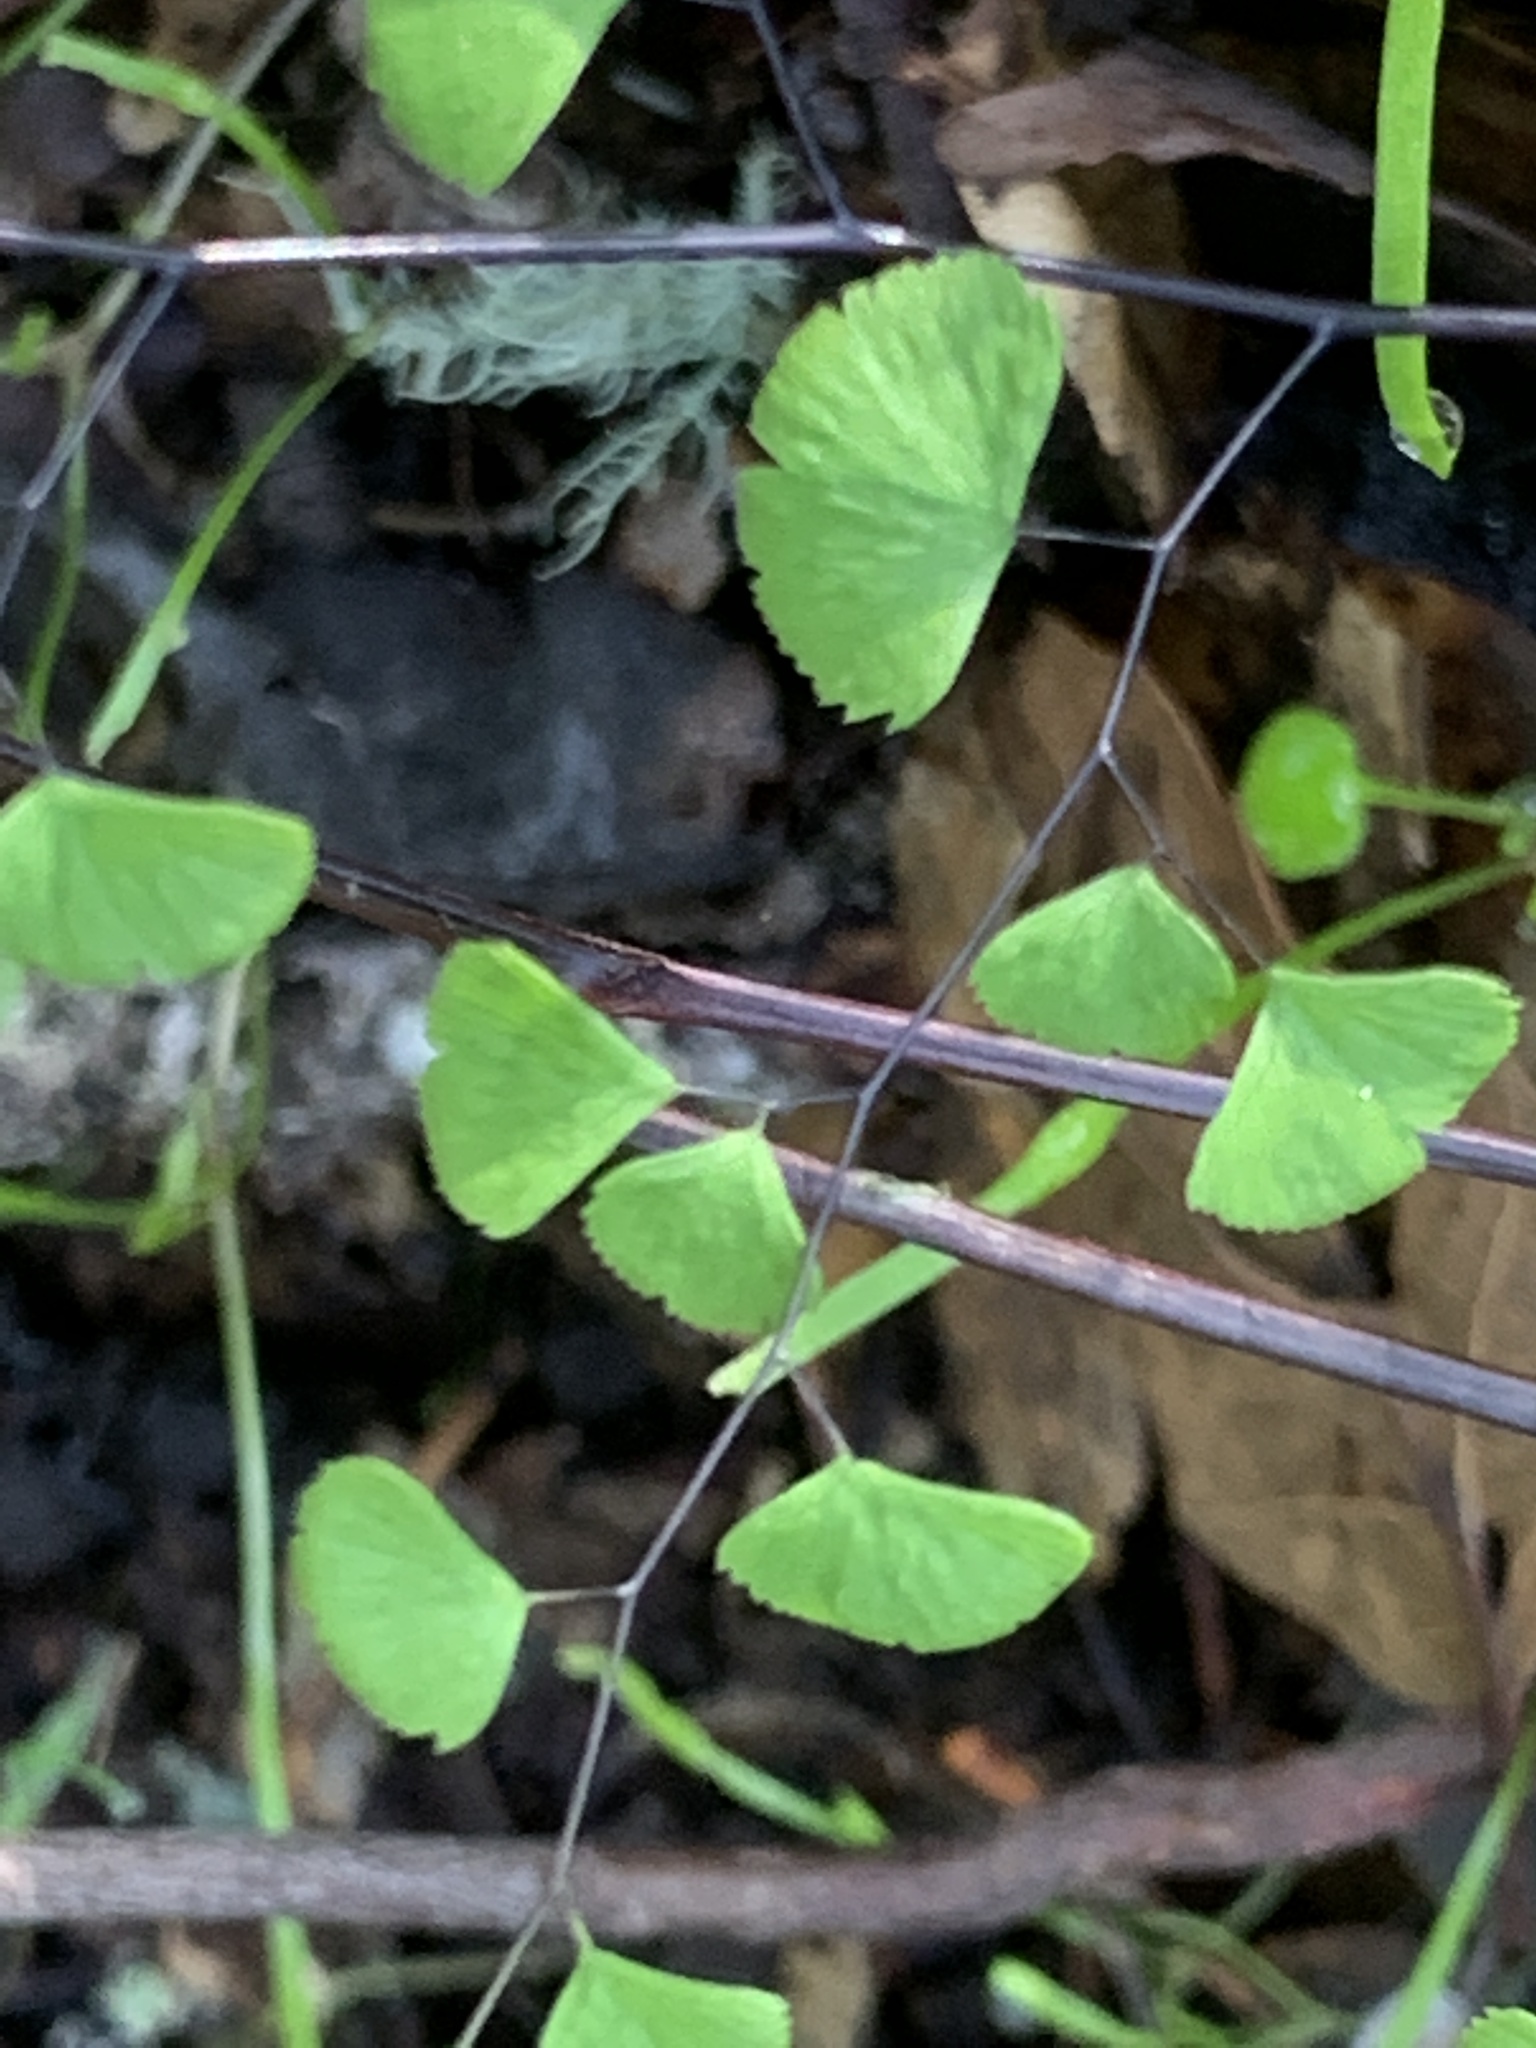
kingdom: Plantae
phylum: Tracheophyta
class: Polypodiopsida
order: Polypodiales
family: Pteridaceae
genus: Adiantum
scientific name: Adiantum jordanii
